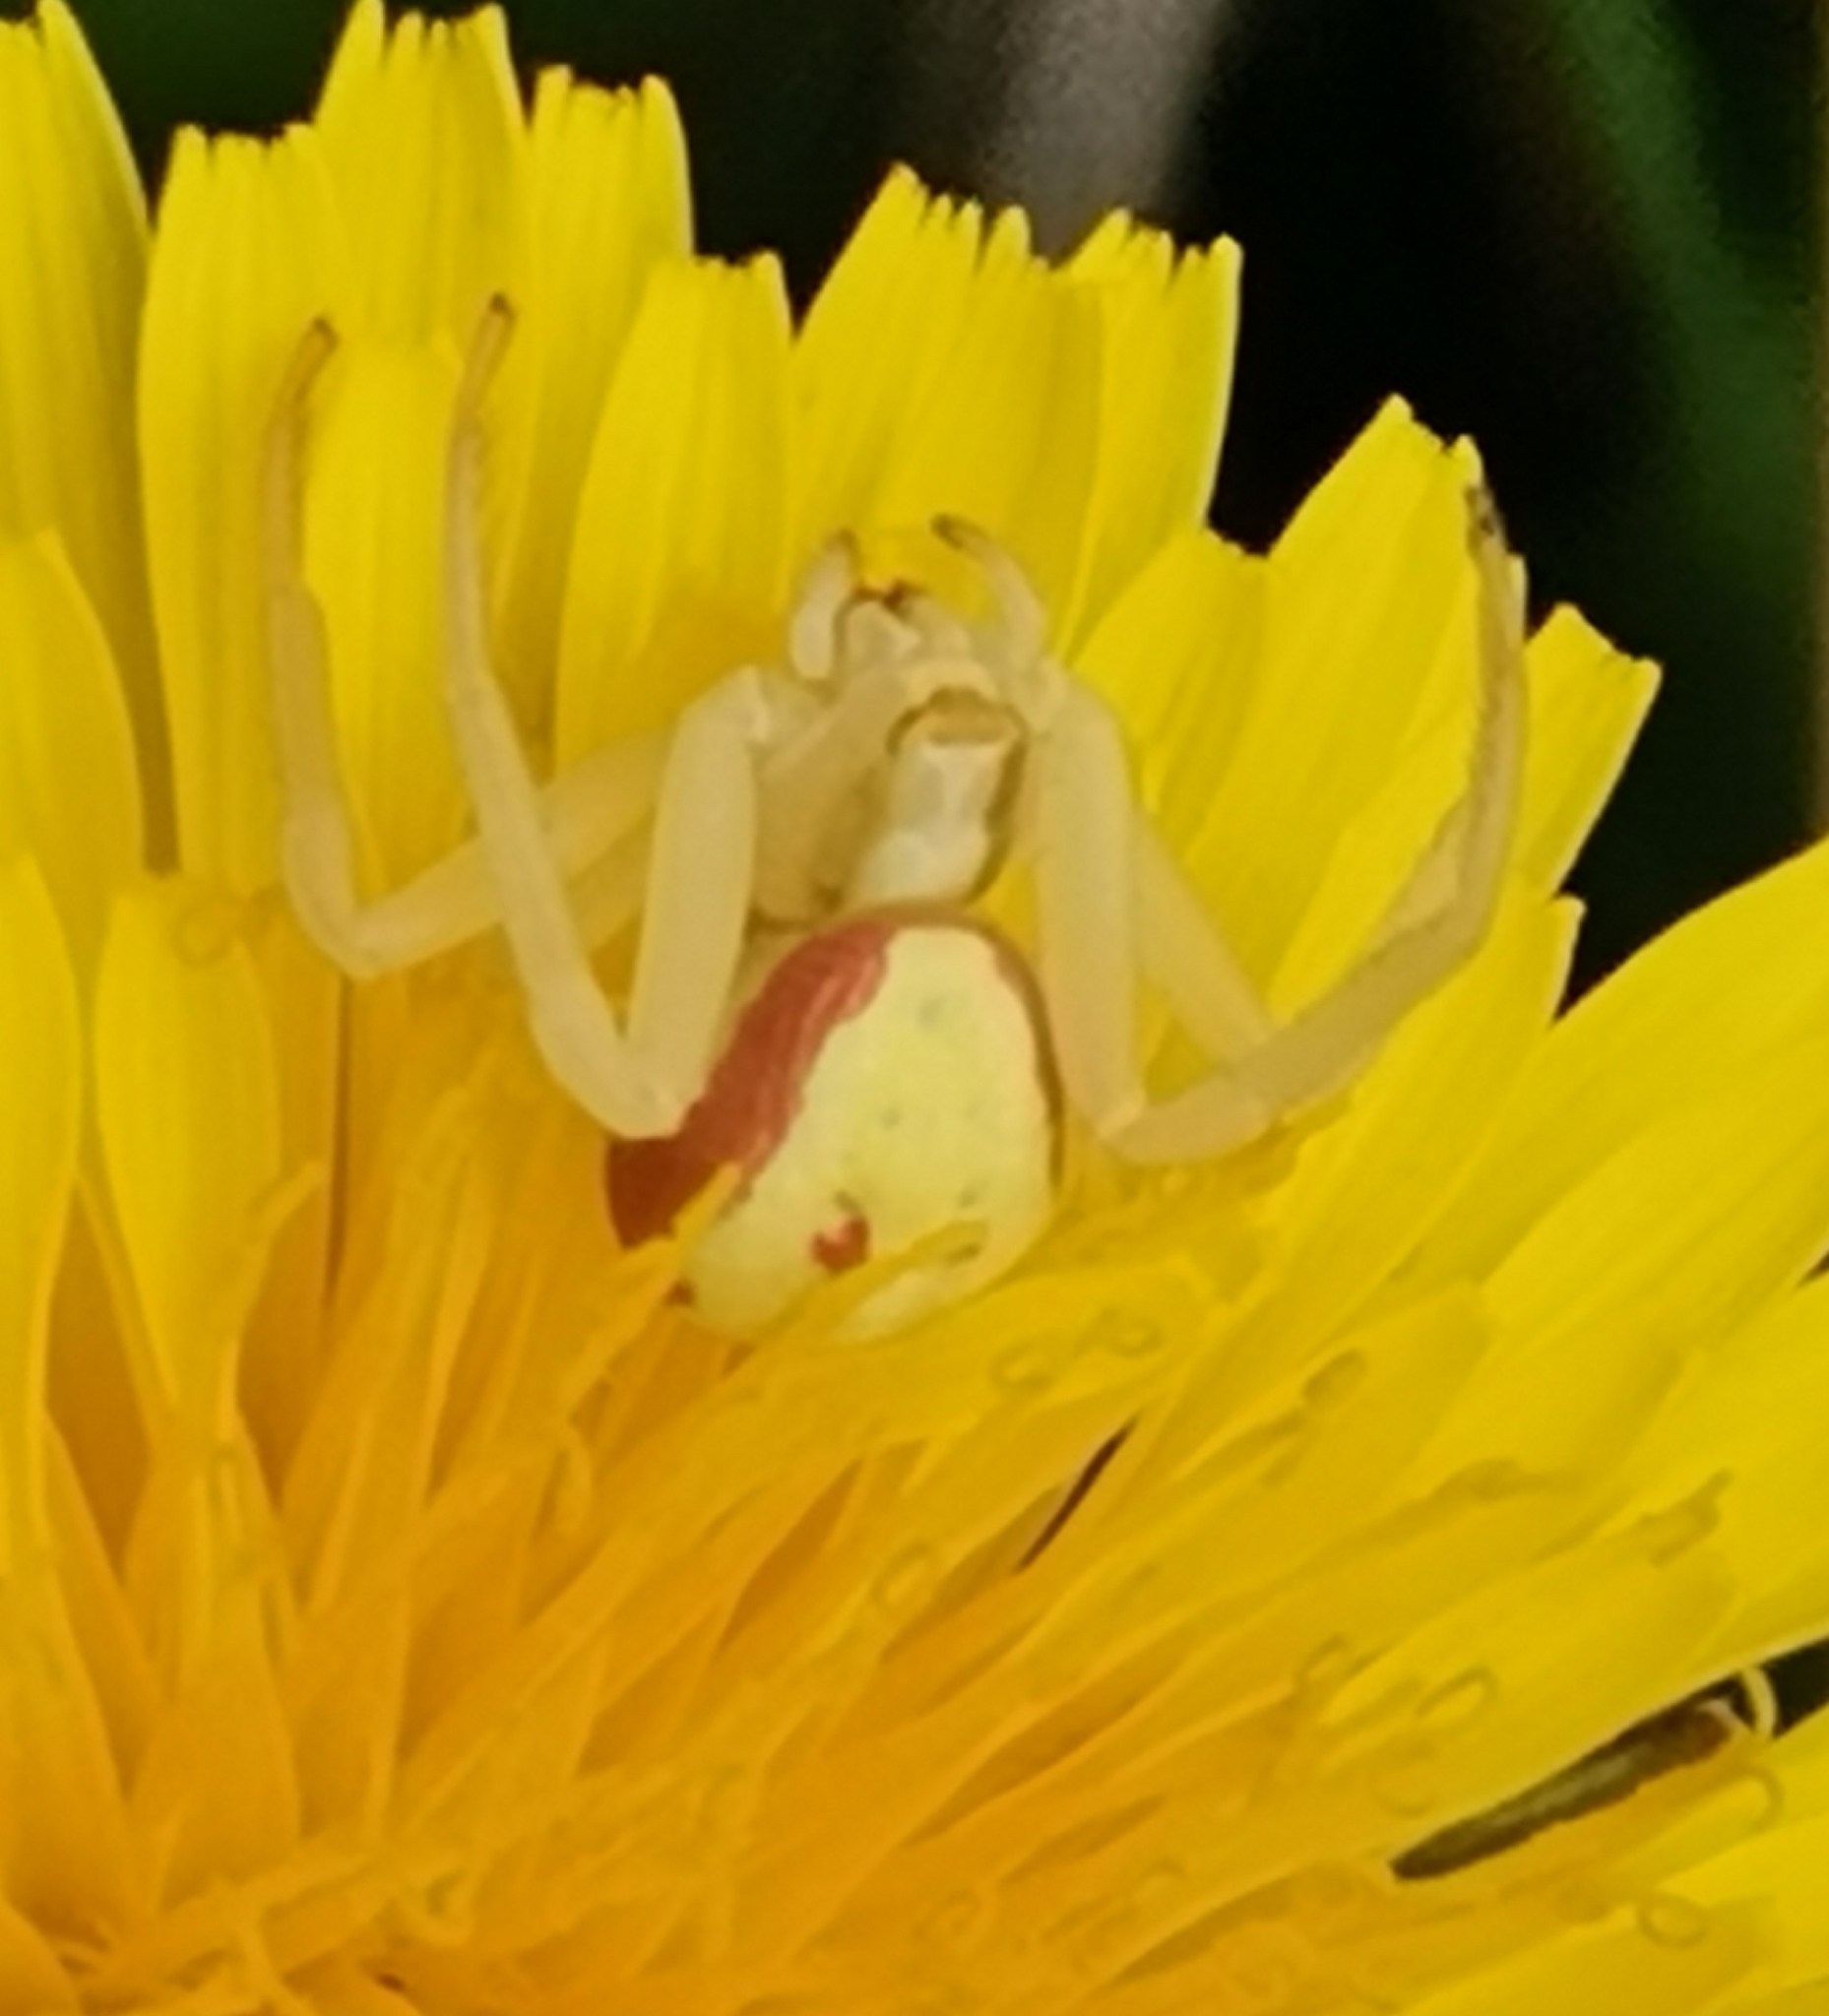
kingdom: Animalia
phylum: Arthropoda
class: Arachnida
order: Araneae
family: Thomisidae
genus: Misumena
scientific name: Misumena vatia
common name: Goldenrod crab spider
